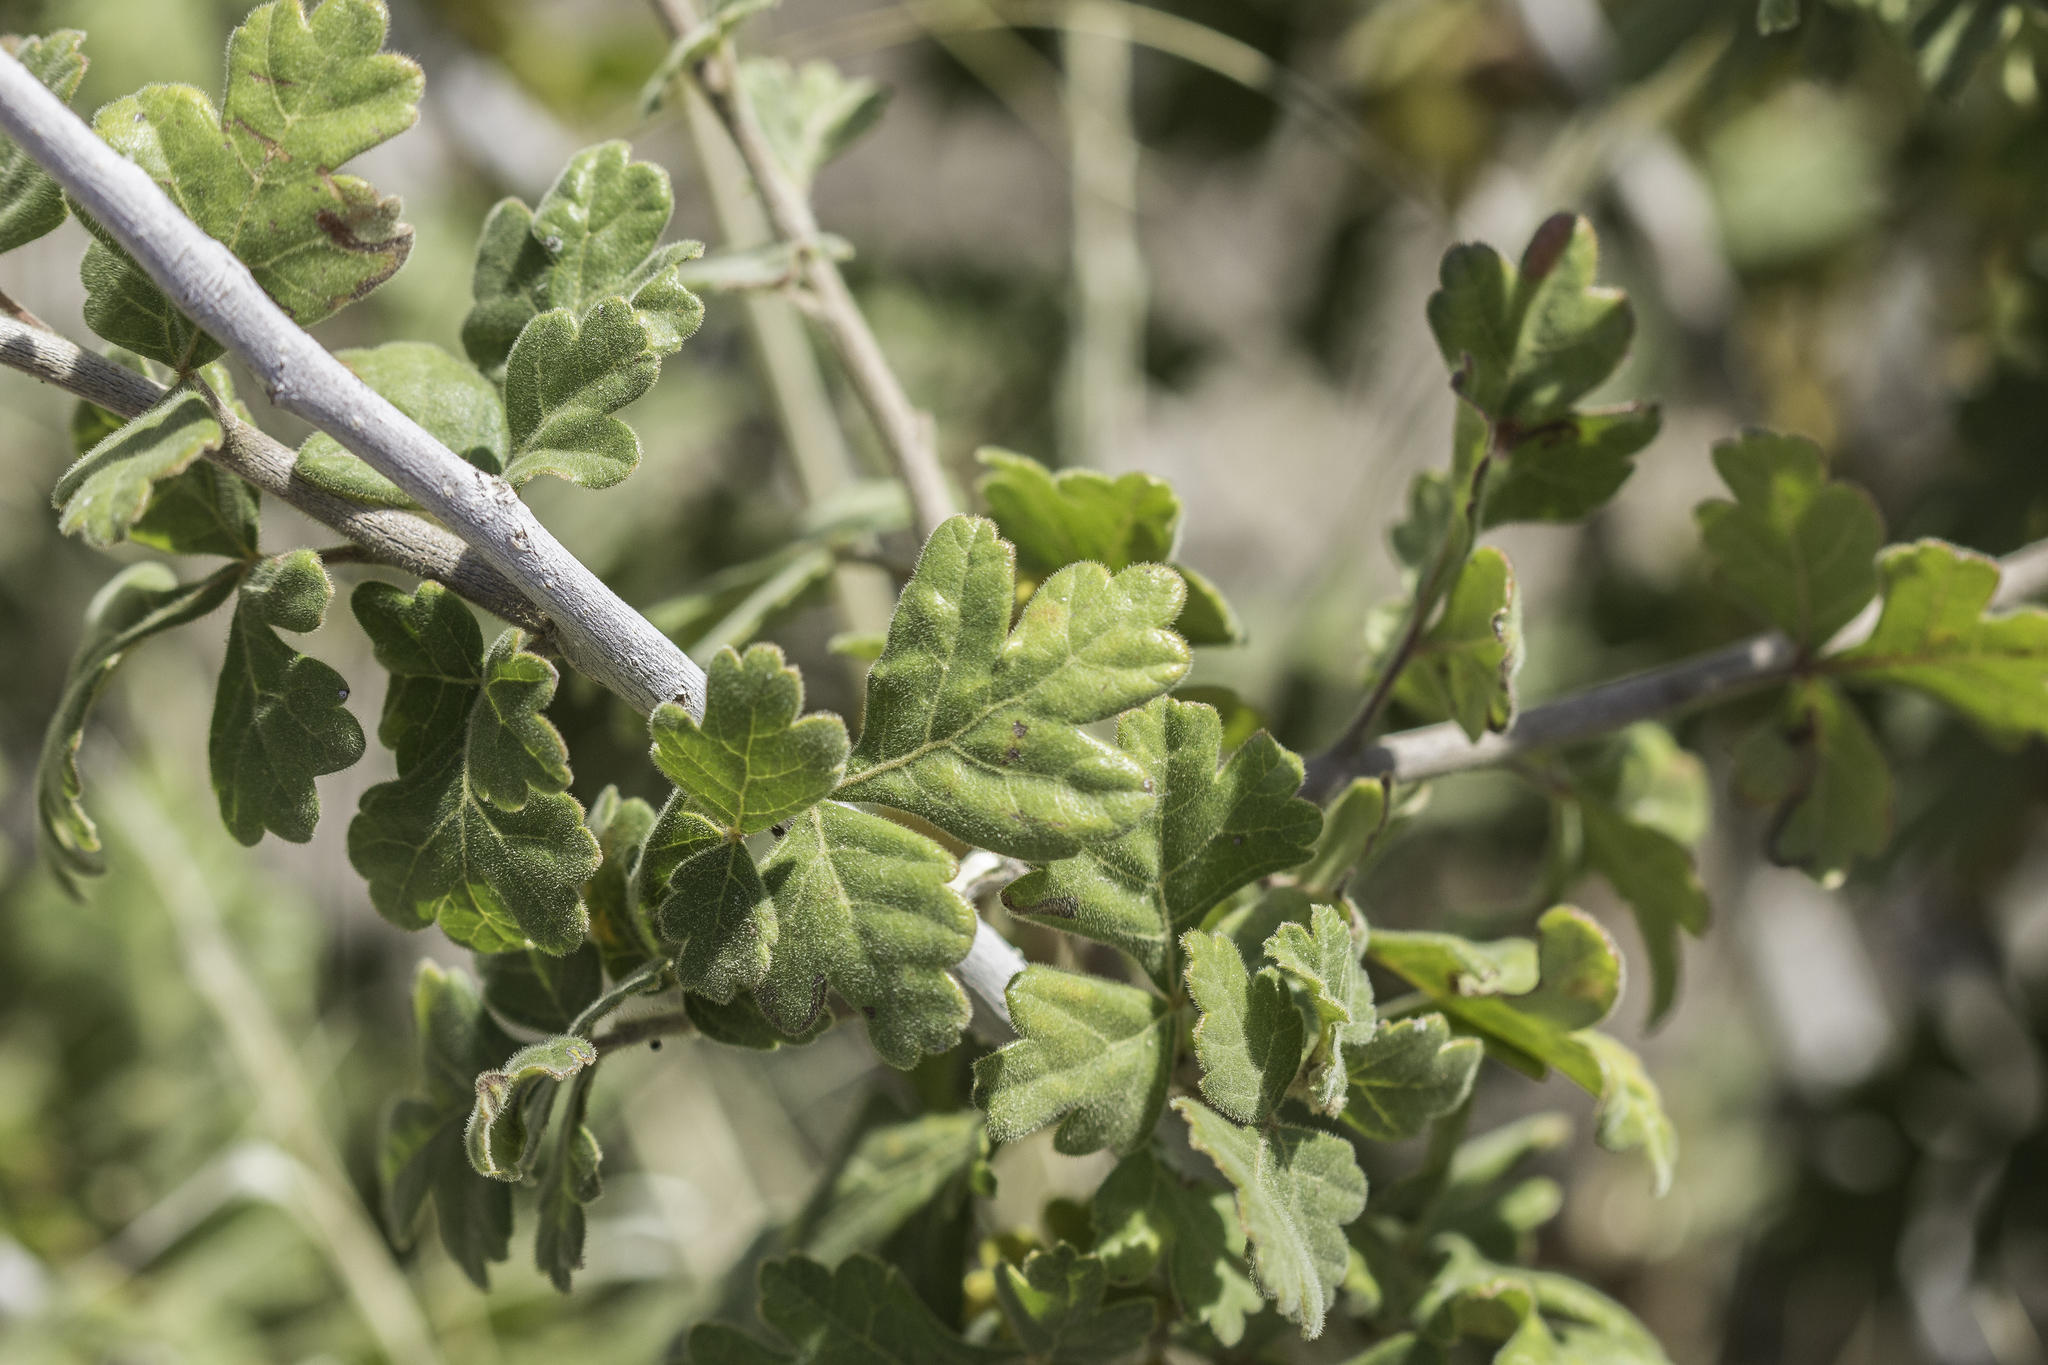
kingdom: Plantae
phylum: Tracheophyta
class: Magnoliopsida
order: Sapindales
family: Anacardiaceae
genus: Rhus
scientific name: Rhus aromatica
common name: Aromatic sumac
